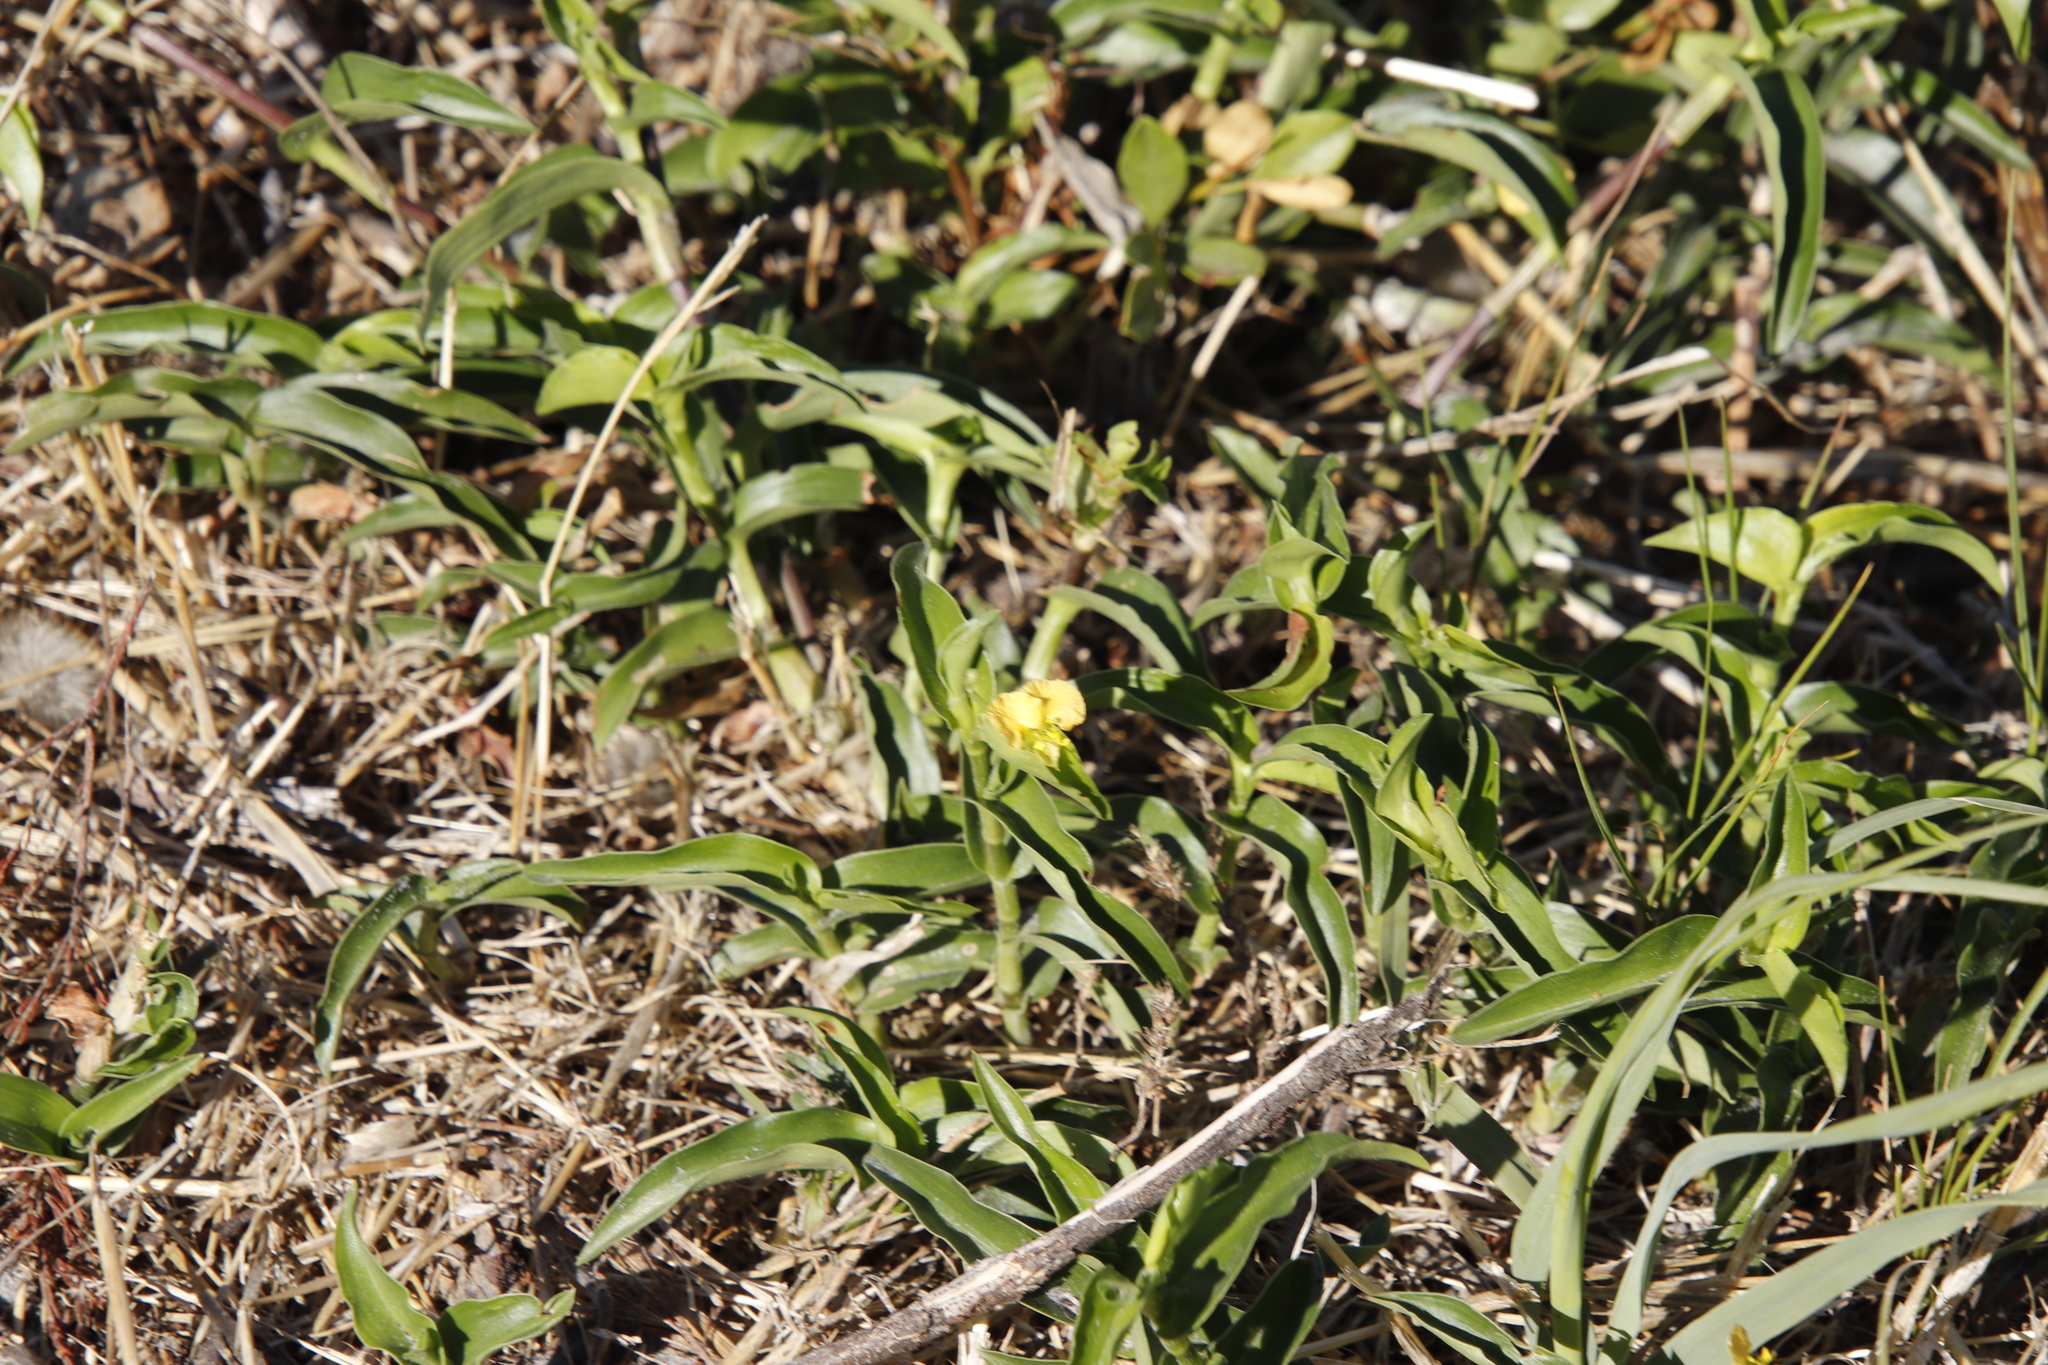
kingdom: Plantae
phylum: Tracheophyta
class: Liliopsida
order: Commelinales
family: Commelinaceae
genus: Commelina
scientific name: Commelina africana
